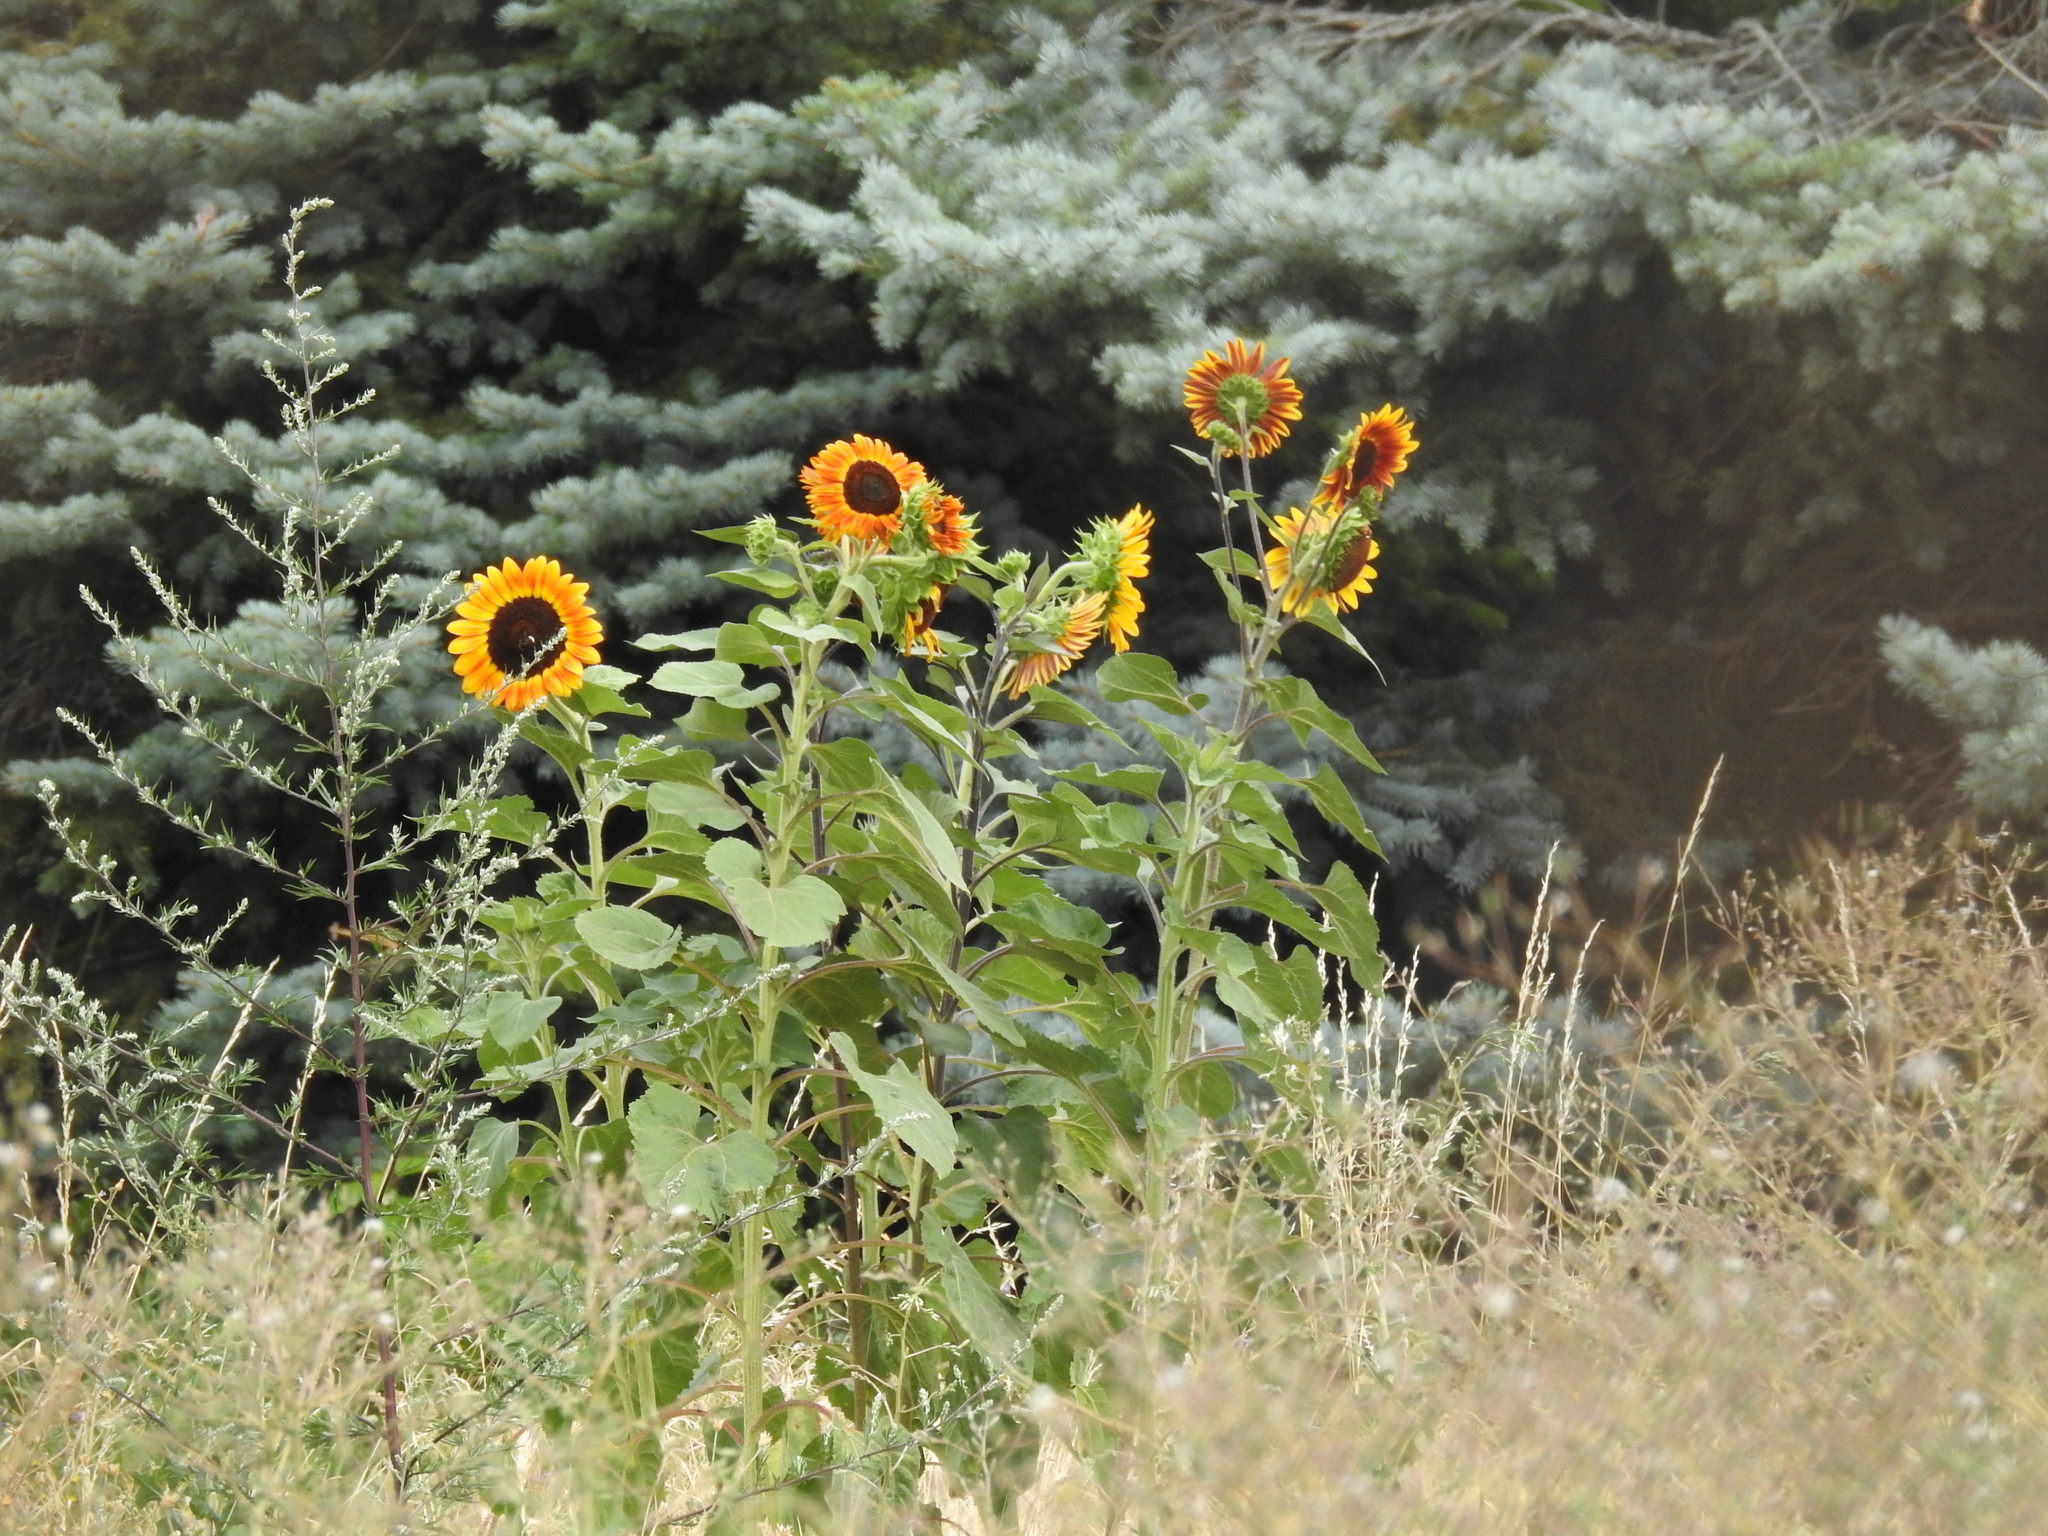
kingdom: Plantae
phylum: Tracheophyta
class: Magnoliopsida
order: Asterales
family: Asteraceae
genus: Helianthus
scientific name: Helianthus annuus
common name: Sunflower
